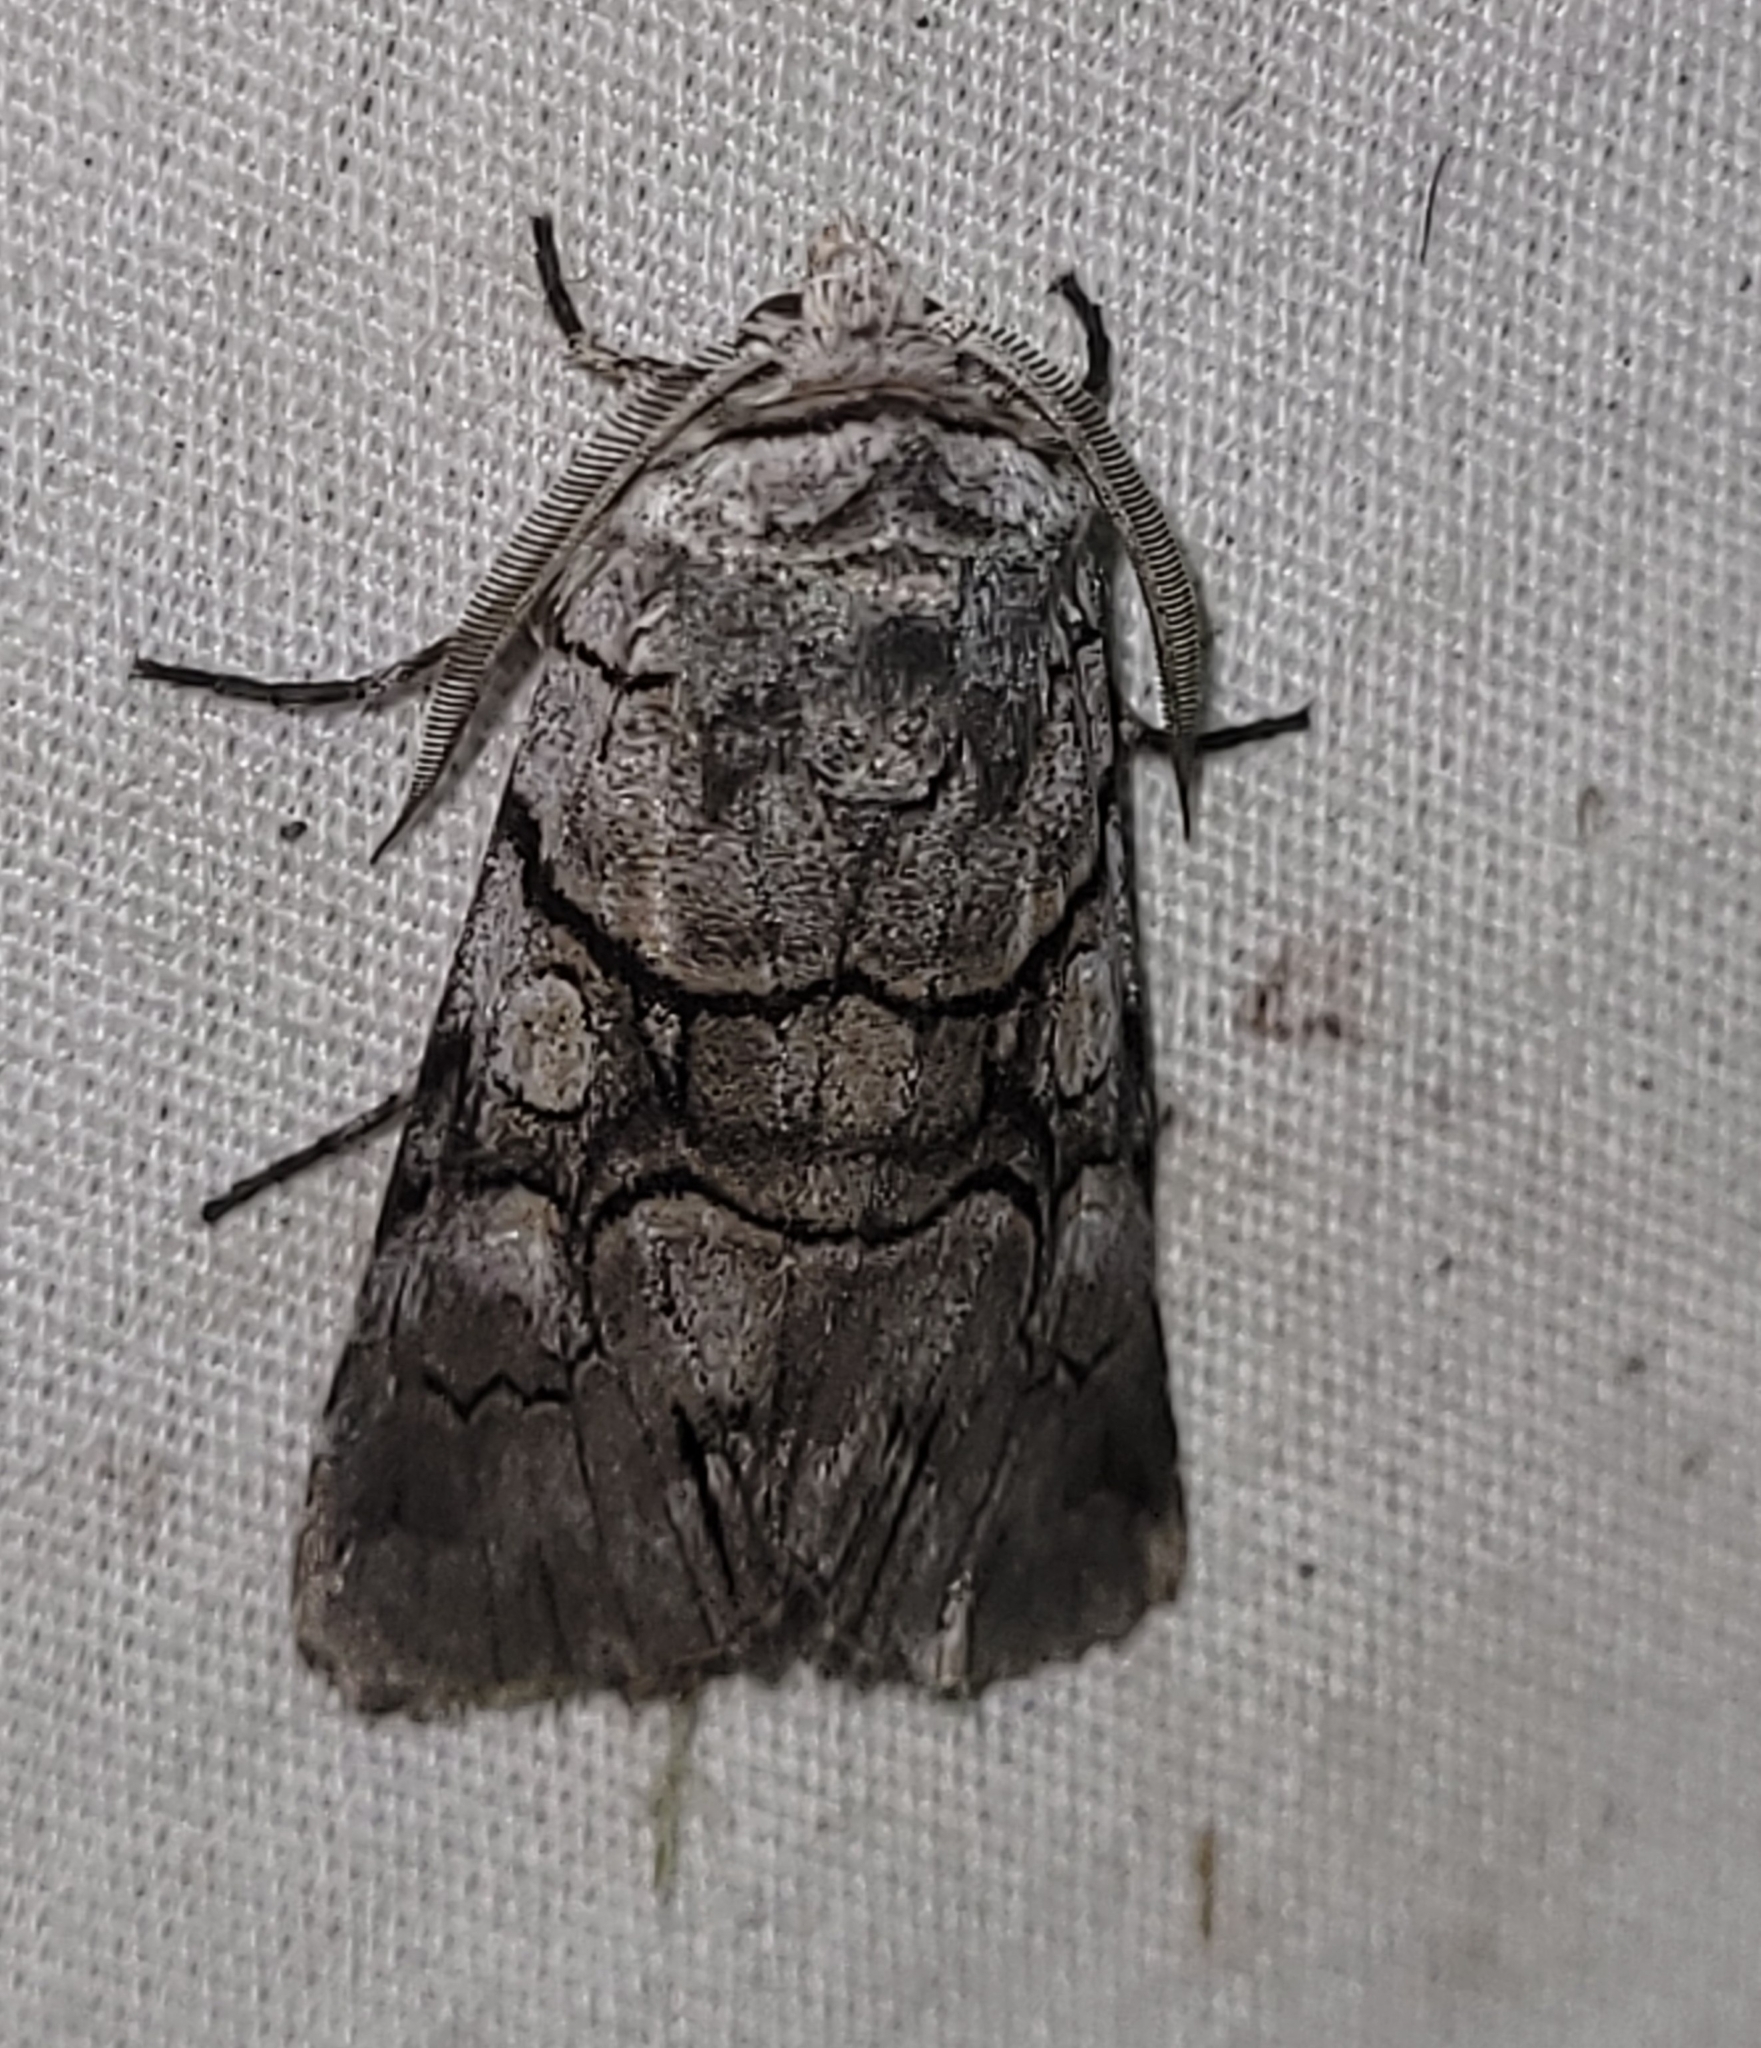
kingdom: Animalia
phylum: Arthropoda
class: Insecta
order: Lepidoptera
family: Noctuidae
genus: Sympistis
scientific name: Sympistis chionanthi
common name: Fringe-tree sallow
